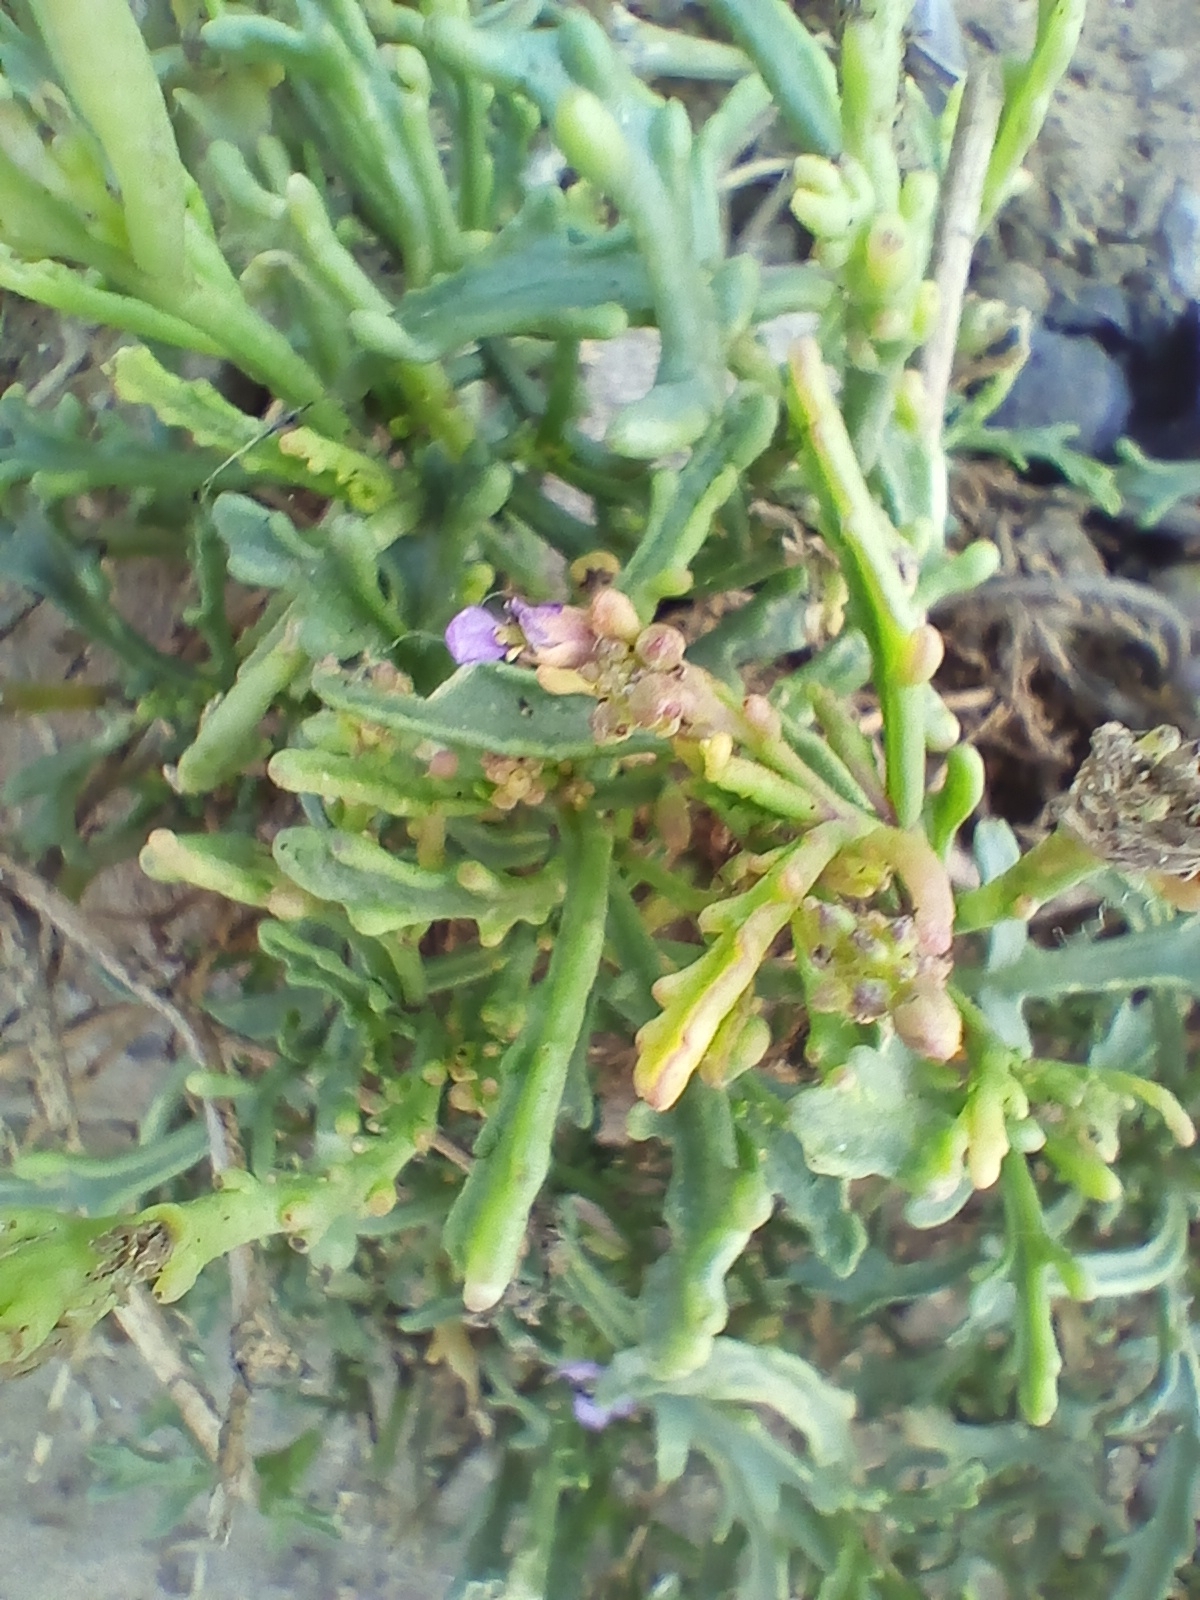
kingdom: Plantae
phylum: Tracheophyta
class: Magnoliopsida
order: Brassicales
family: Brassicaceae
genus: Cakile
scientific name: Cakile maritima
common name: Sea rocket
